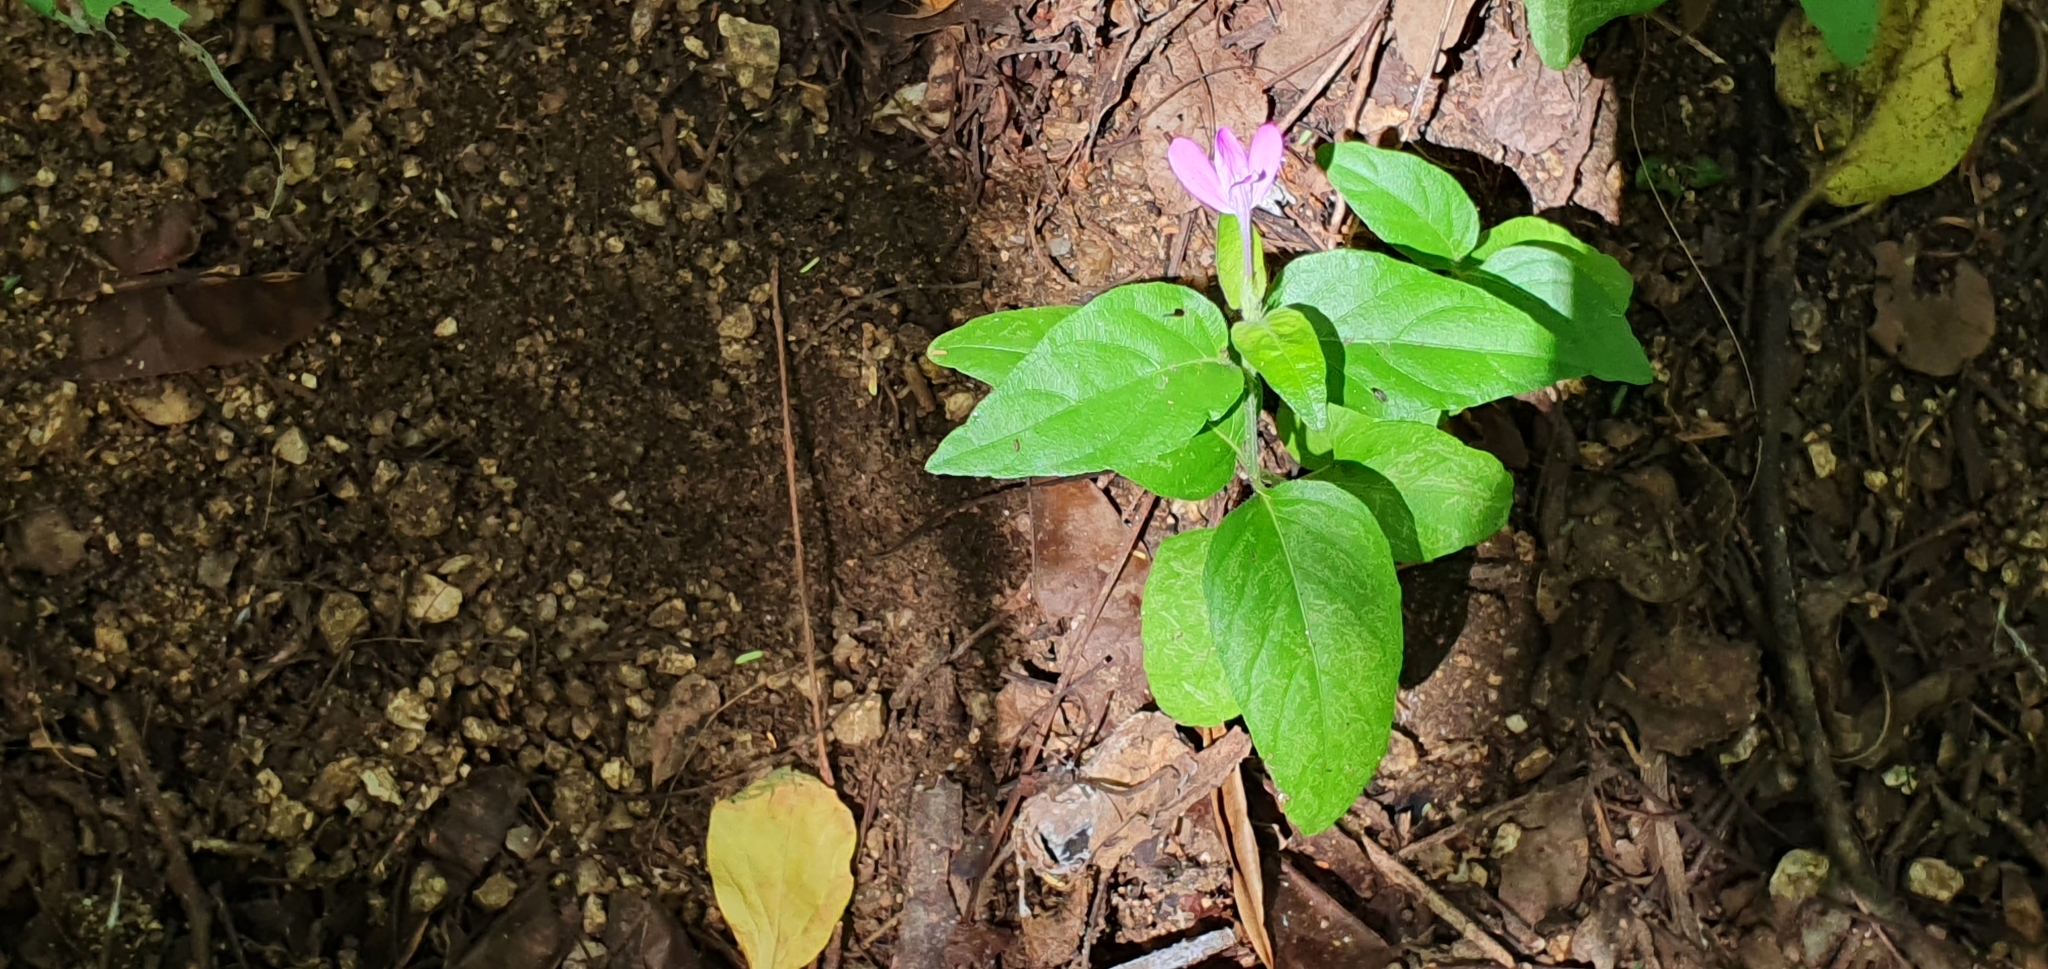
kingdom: Plantae
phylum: Tracheophyta
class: Magnoliopsida
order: Lamiales
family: Acanthaceae
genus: Dianthera
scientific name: Dianthera incerta
